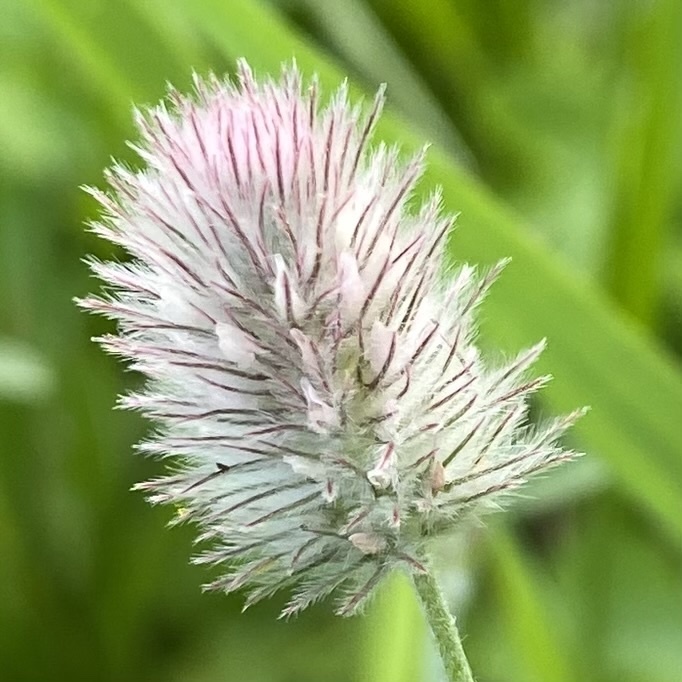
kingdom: Plantae
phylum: Tracheophyta
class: Magnoliopsida
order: Fabales
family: Fabaceae
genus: Trifolium
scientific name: Trifolium arvense
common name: Hare's-foot clover
